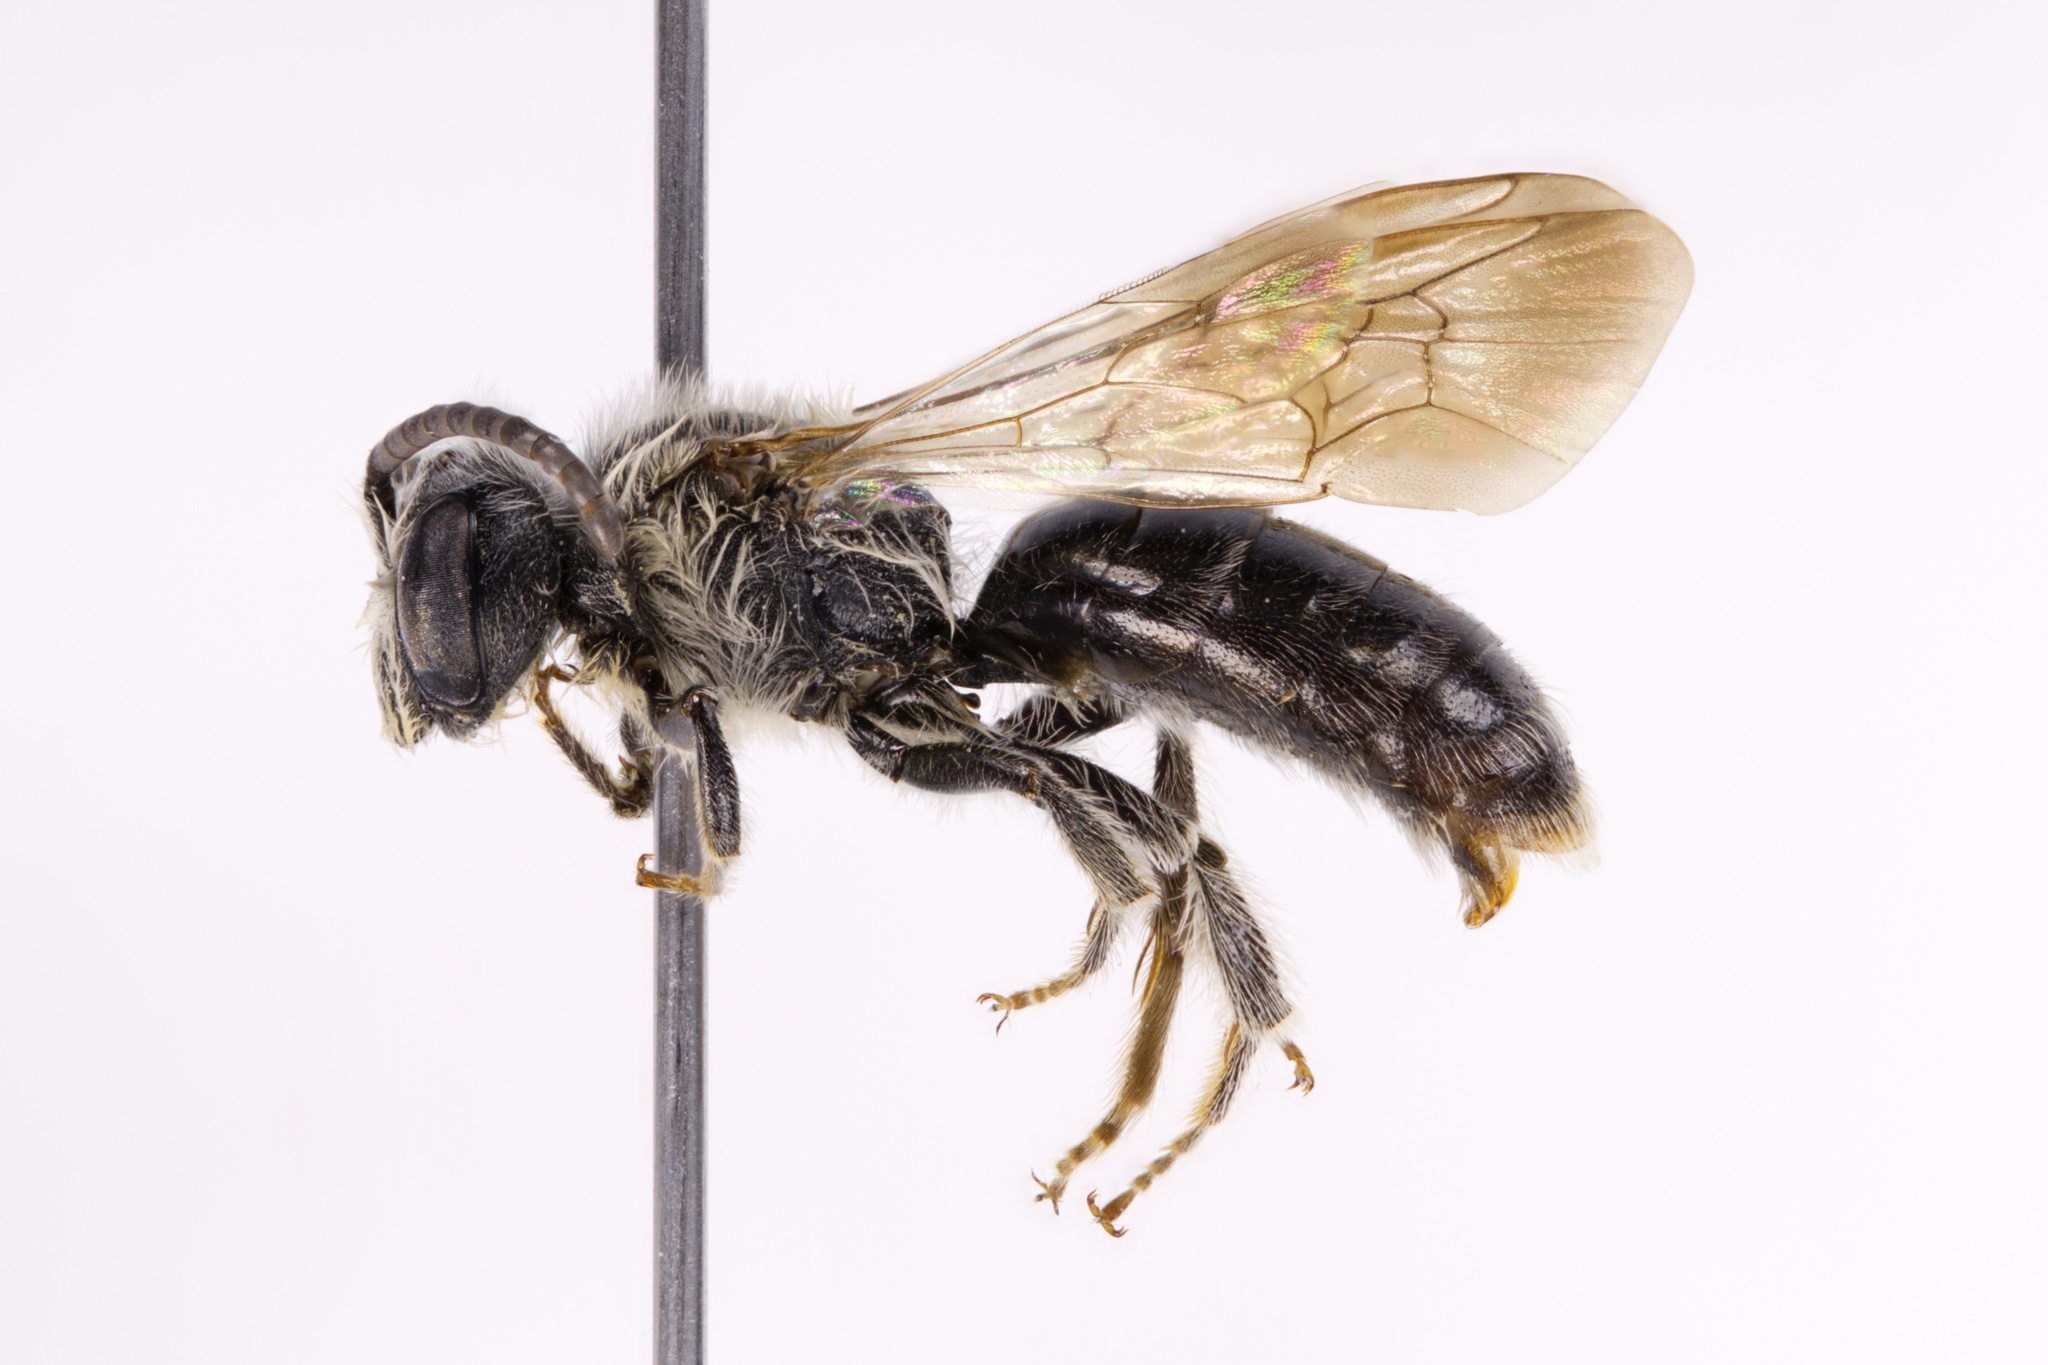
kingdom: Animalia
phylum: Arthropoda
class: Insecta
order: Hymenoptera
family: Andrenidae
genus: Andrena
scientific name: Andrena atlantica
